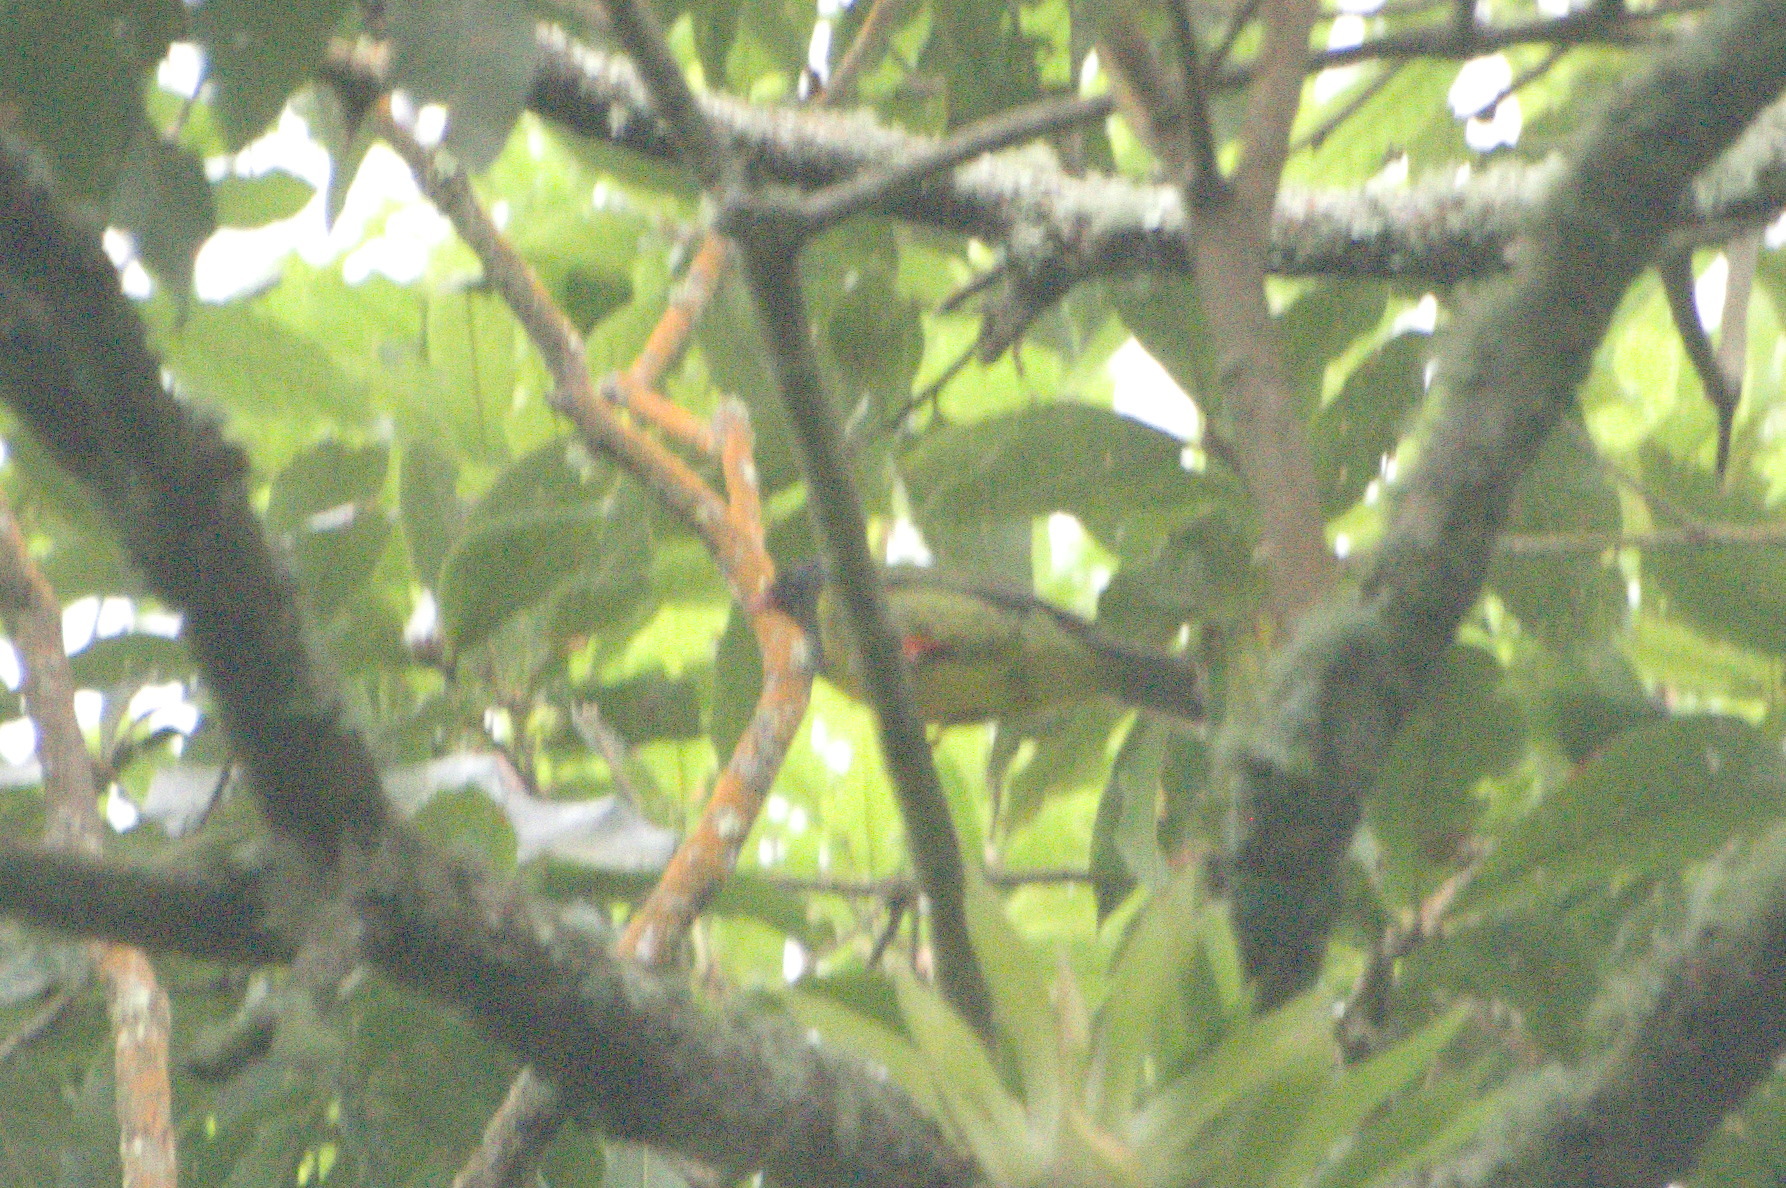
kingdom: Animalia
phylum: Chordata
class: Aves
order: Passeriformes
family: Cotingidae
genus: Pipreola
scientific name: Pipreola riefferii
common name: Green-and-black fruiteater
